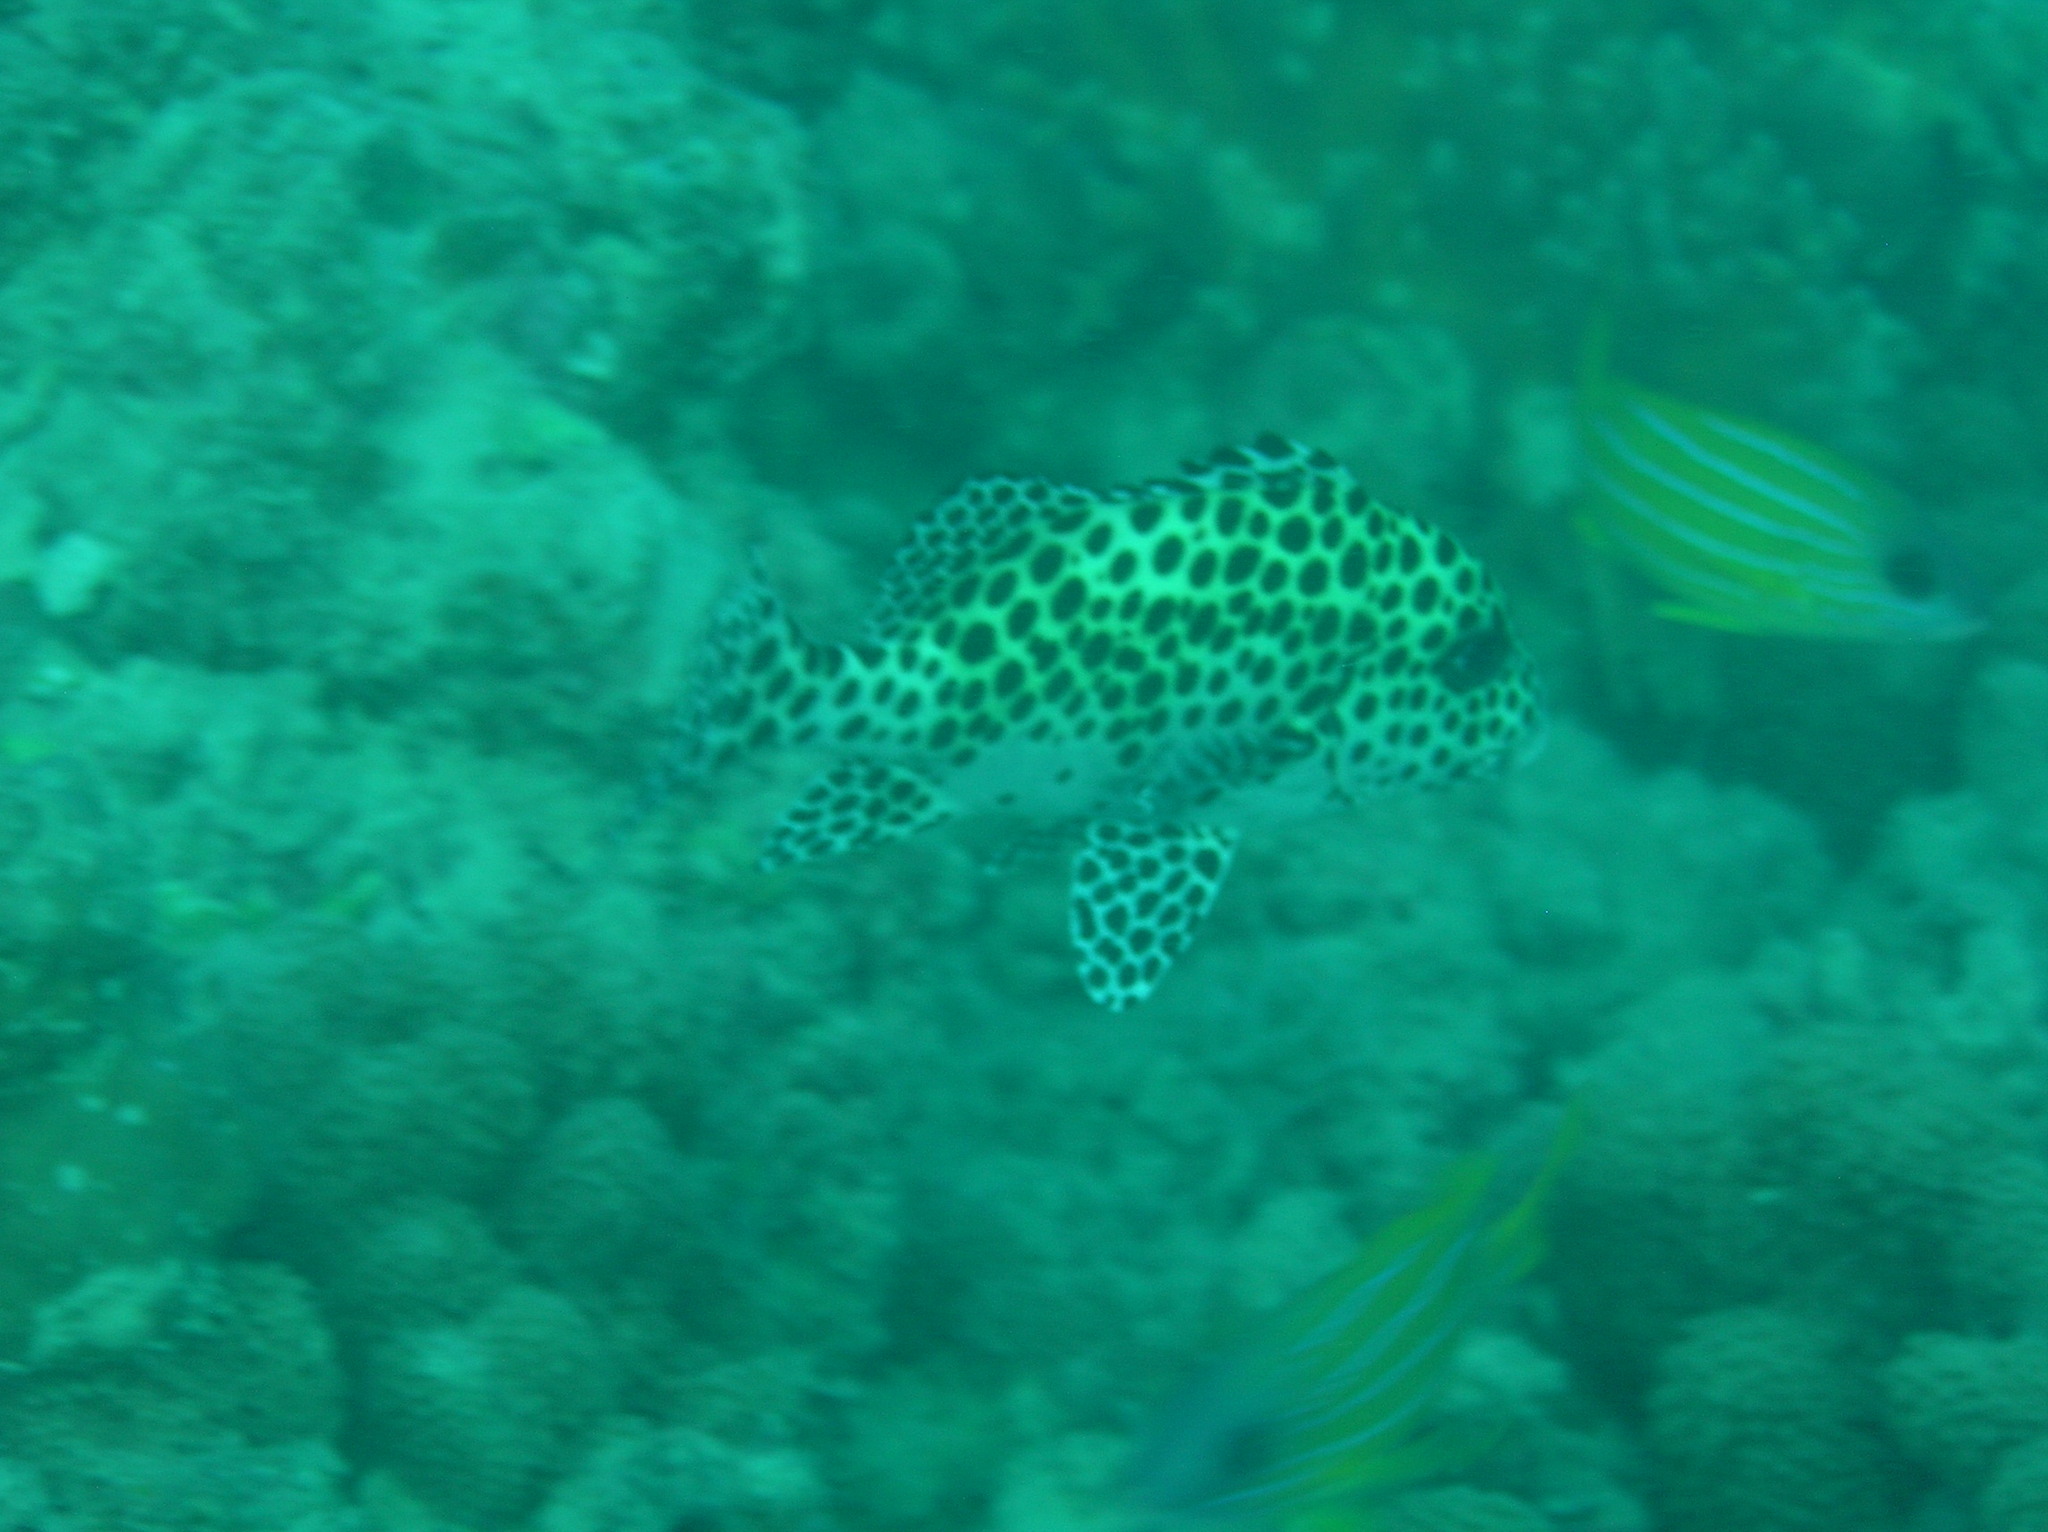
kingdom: Animalia
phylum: Chordata
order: Perciformes
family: Haemulidae
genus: Plectorhinchus
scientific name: Plectorhinchus chaetodonoides
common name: Harlequin sweetlips
